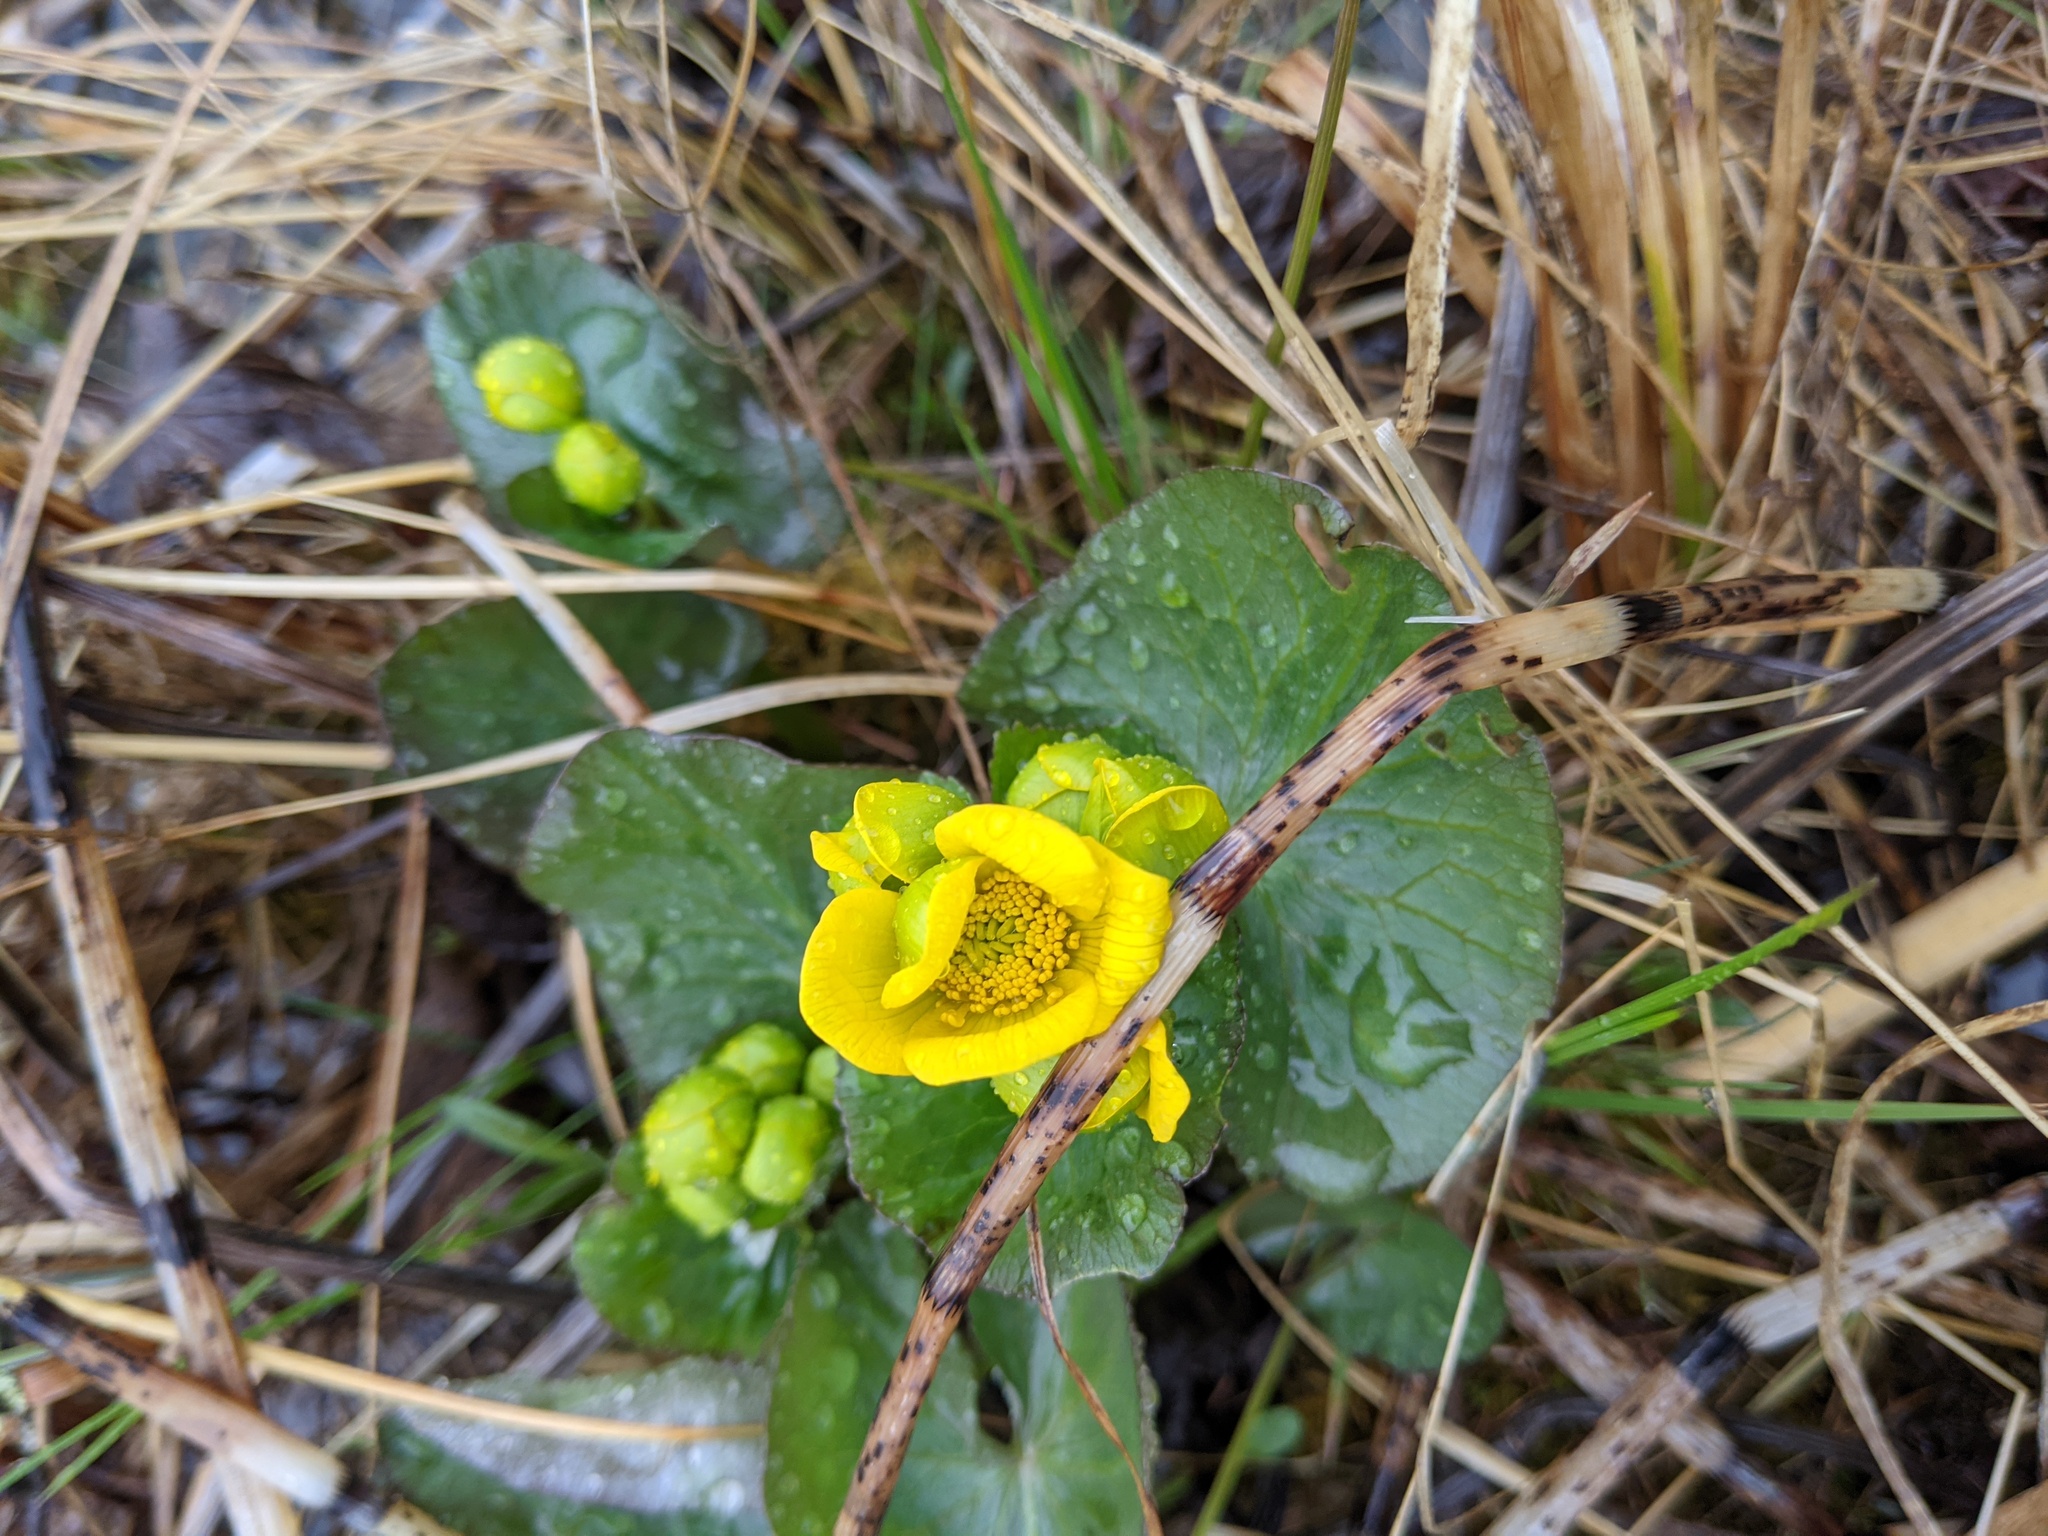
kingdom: Plantae
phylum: Tracheophyta
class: Magnoliopsida
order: Ranunculales
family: Ranunculaceae
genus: Caltha
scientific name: Caltha palustris
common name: Marsh marigold
